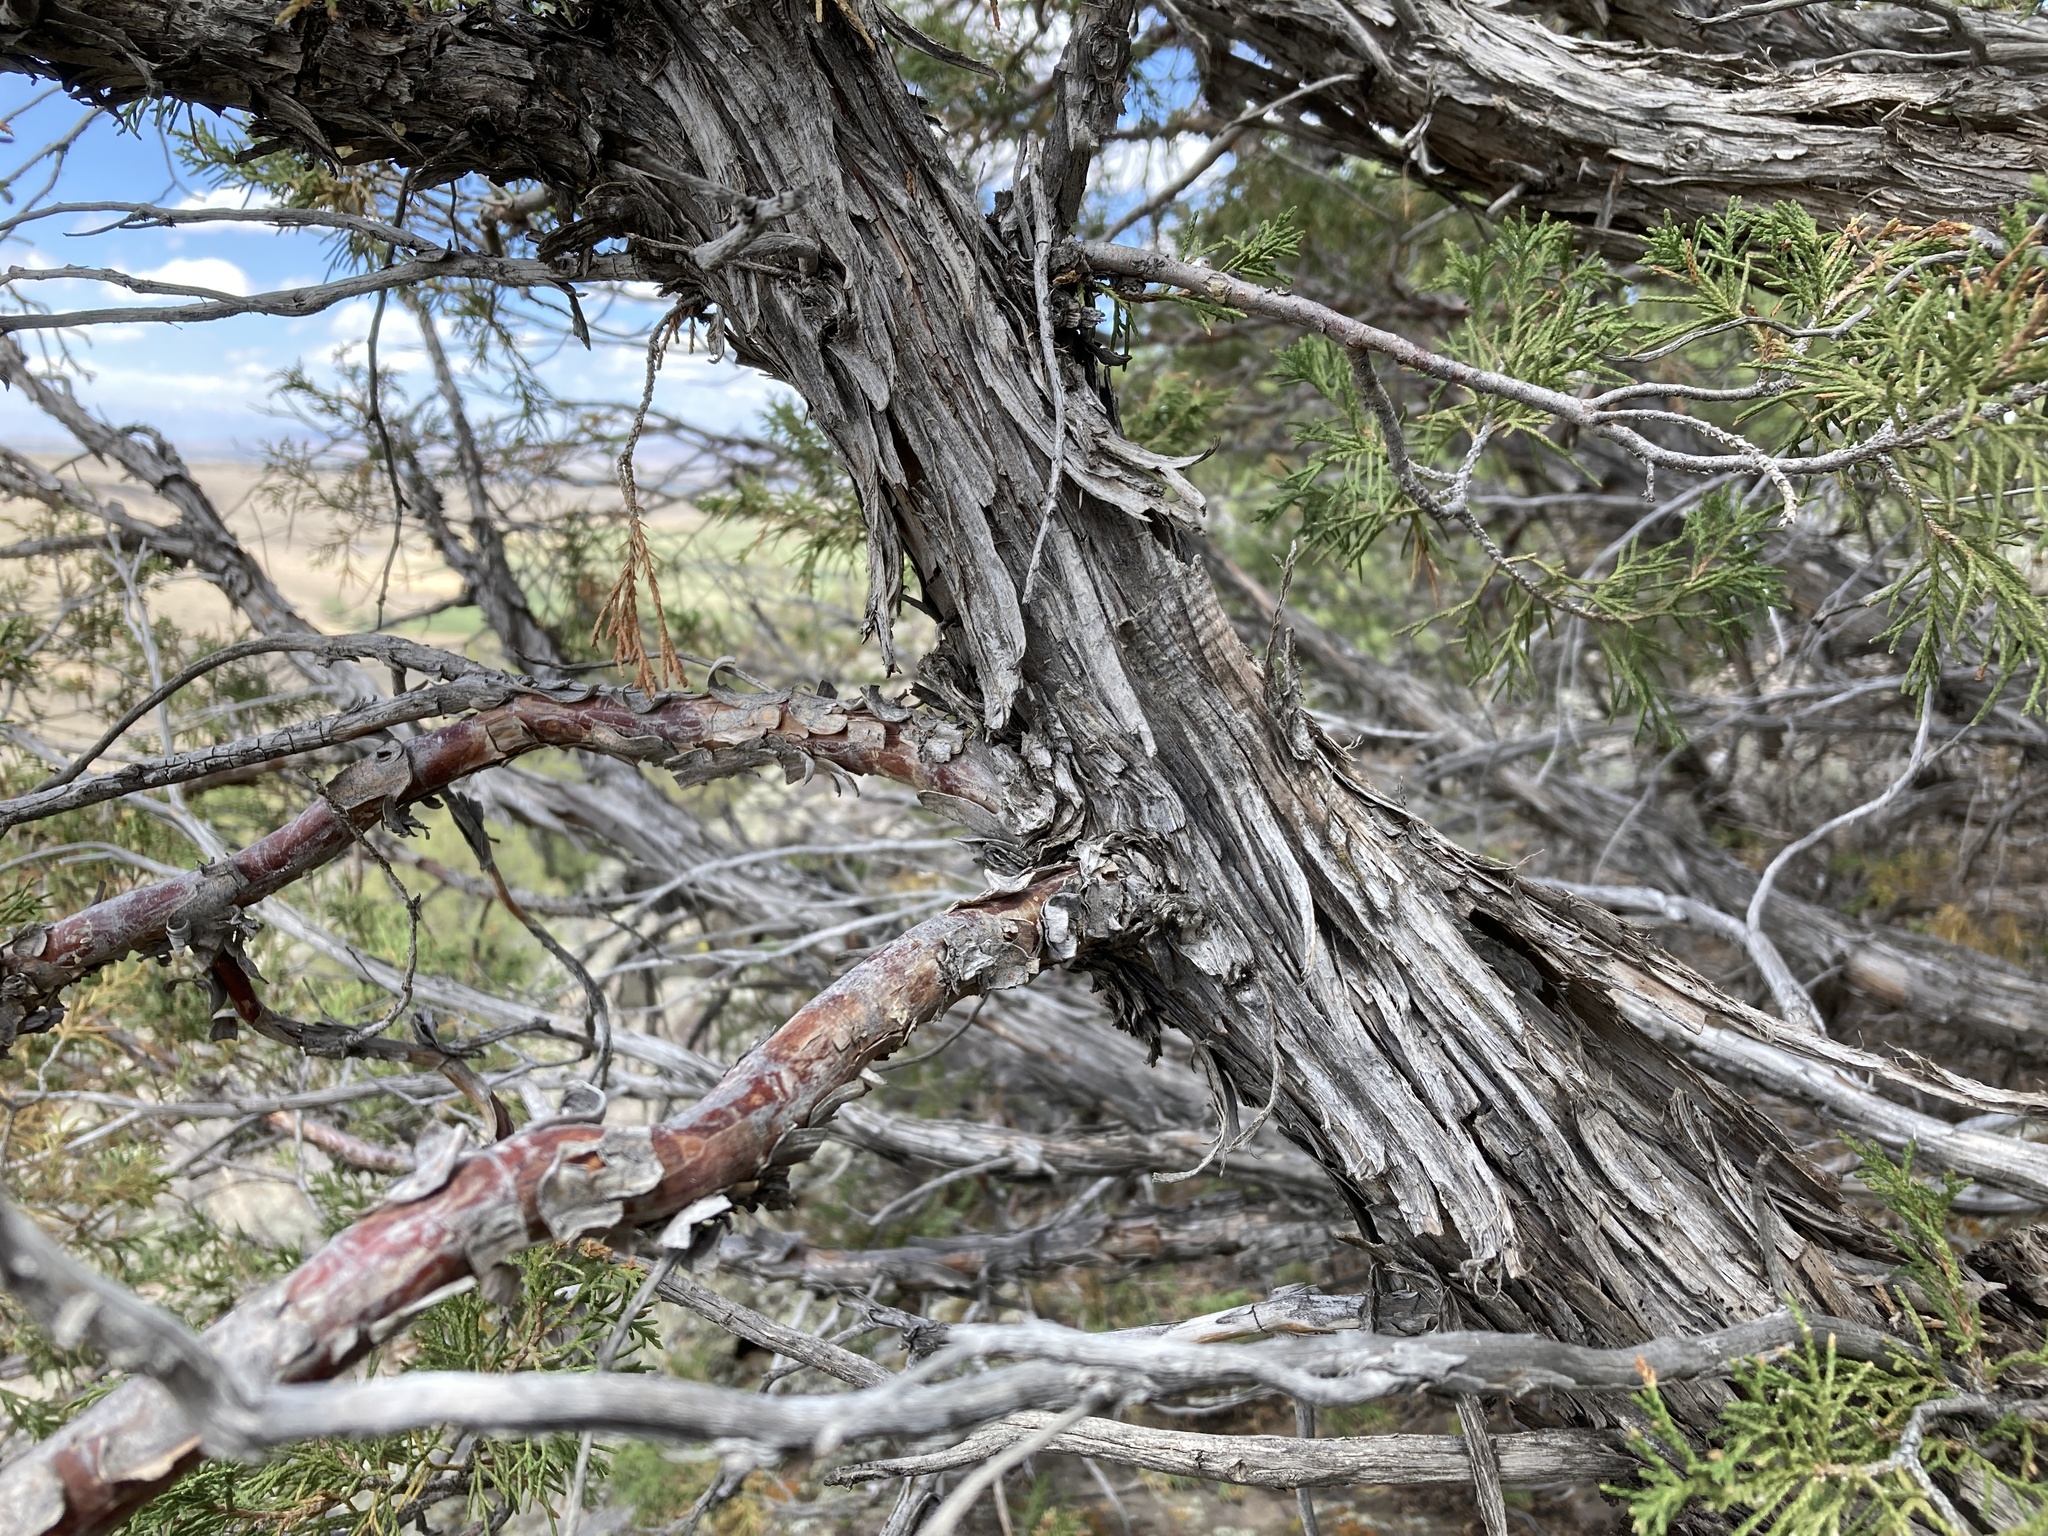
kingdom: Plantae
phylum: Tracheophyta
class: Pinopsida
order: Pinales
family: Cupressaceae
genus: Juniperus
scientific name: Juniperus scopulorum
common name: Rocky mountain juniper
